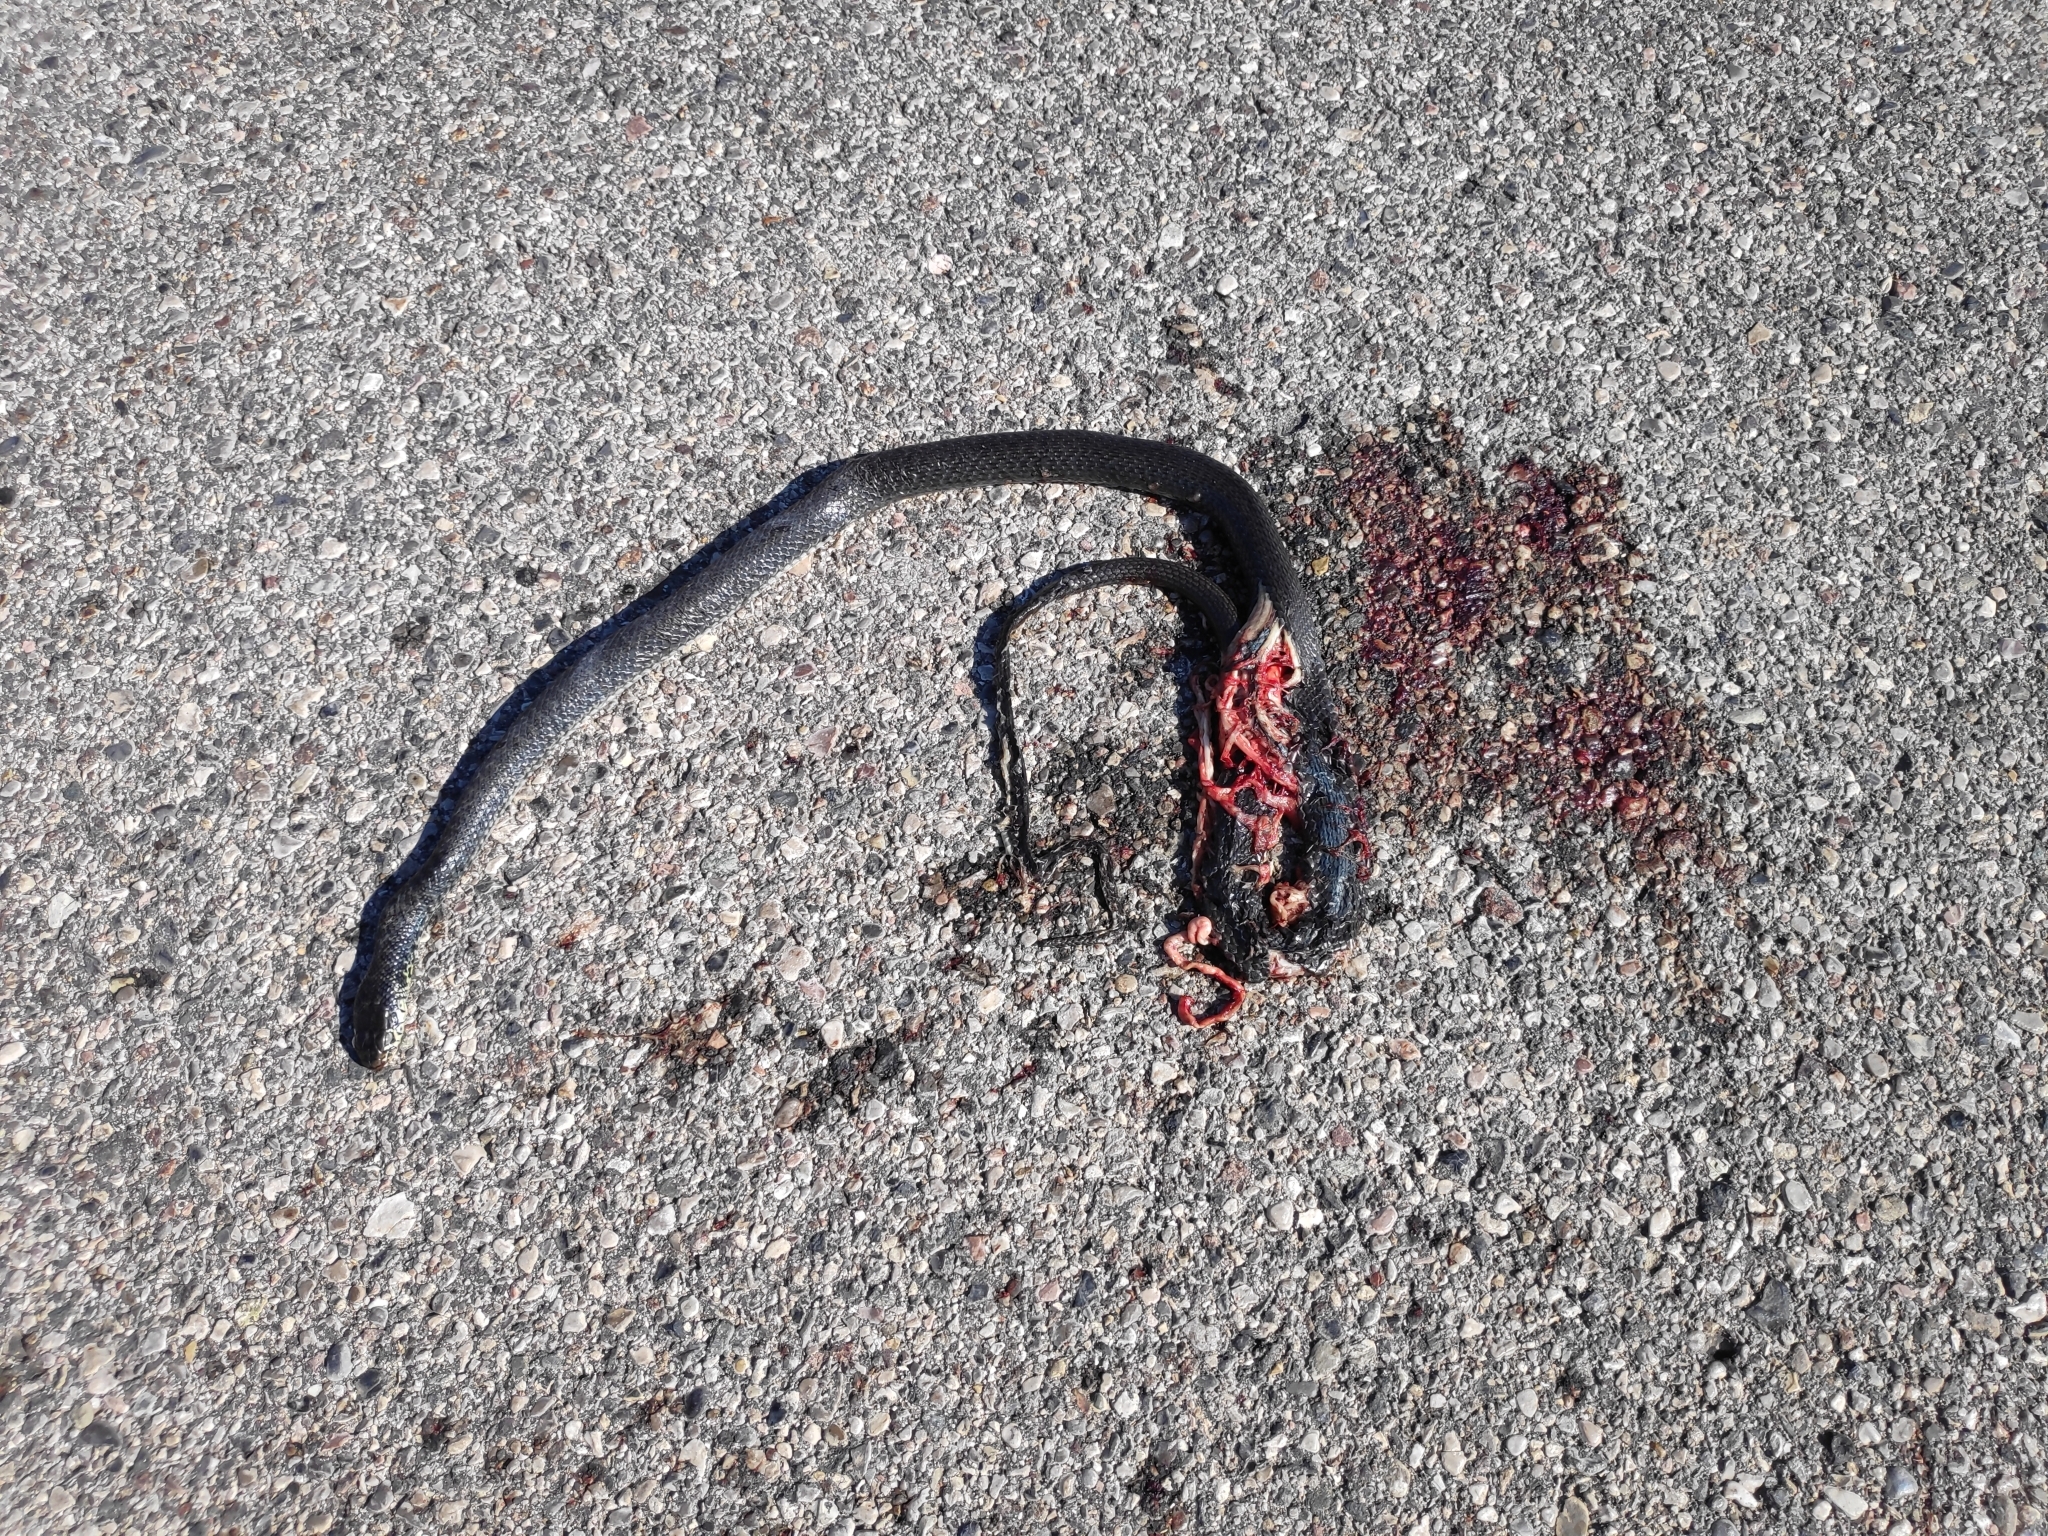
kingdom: Animalia
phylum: Chordata
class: Squamata
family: Colubridae
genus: Hierophis
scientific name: Hierophis viridiflavus
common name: Green whip snake
